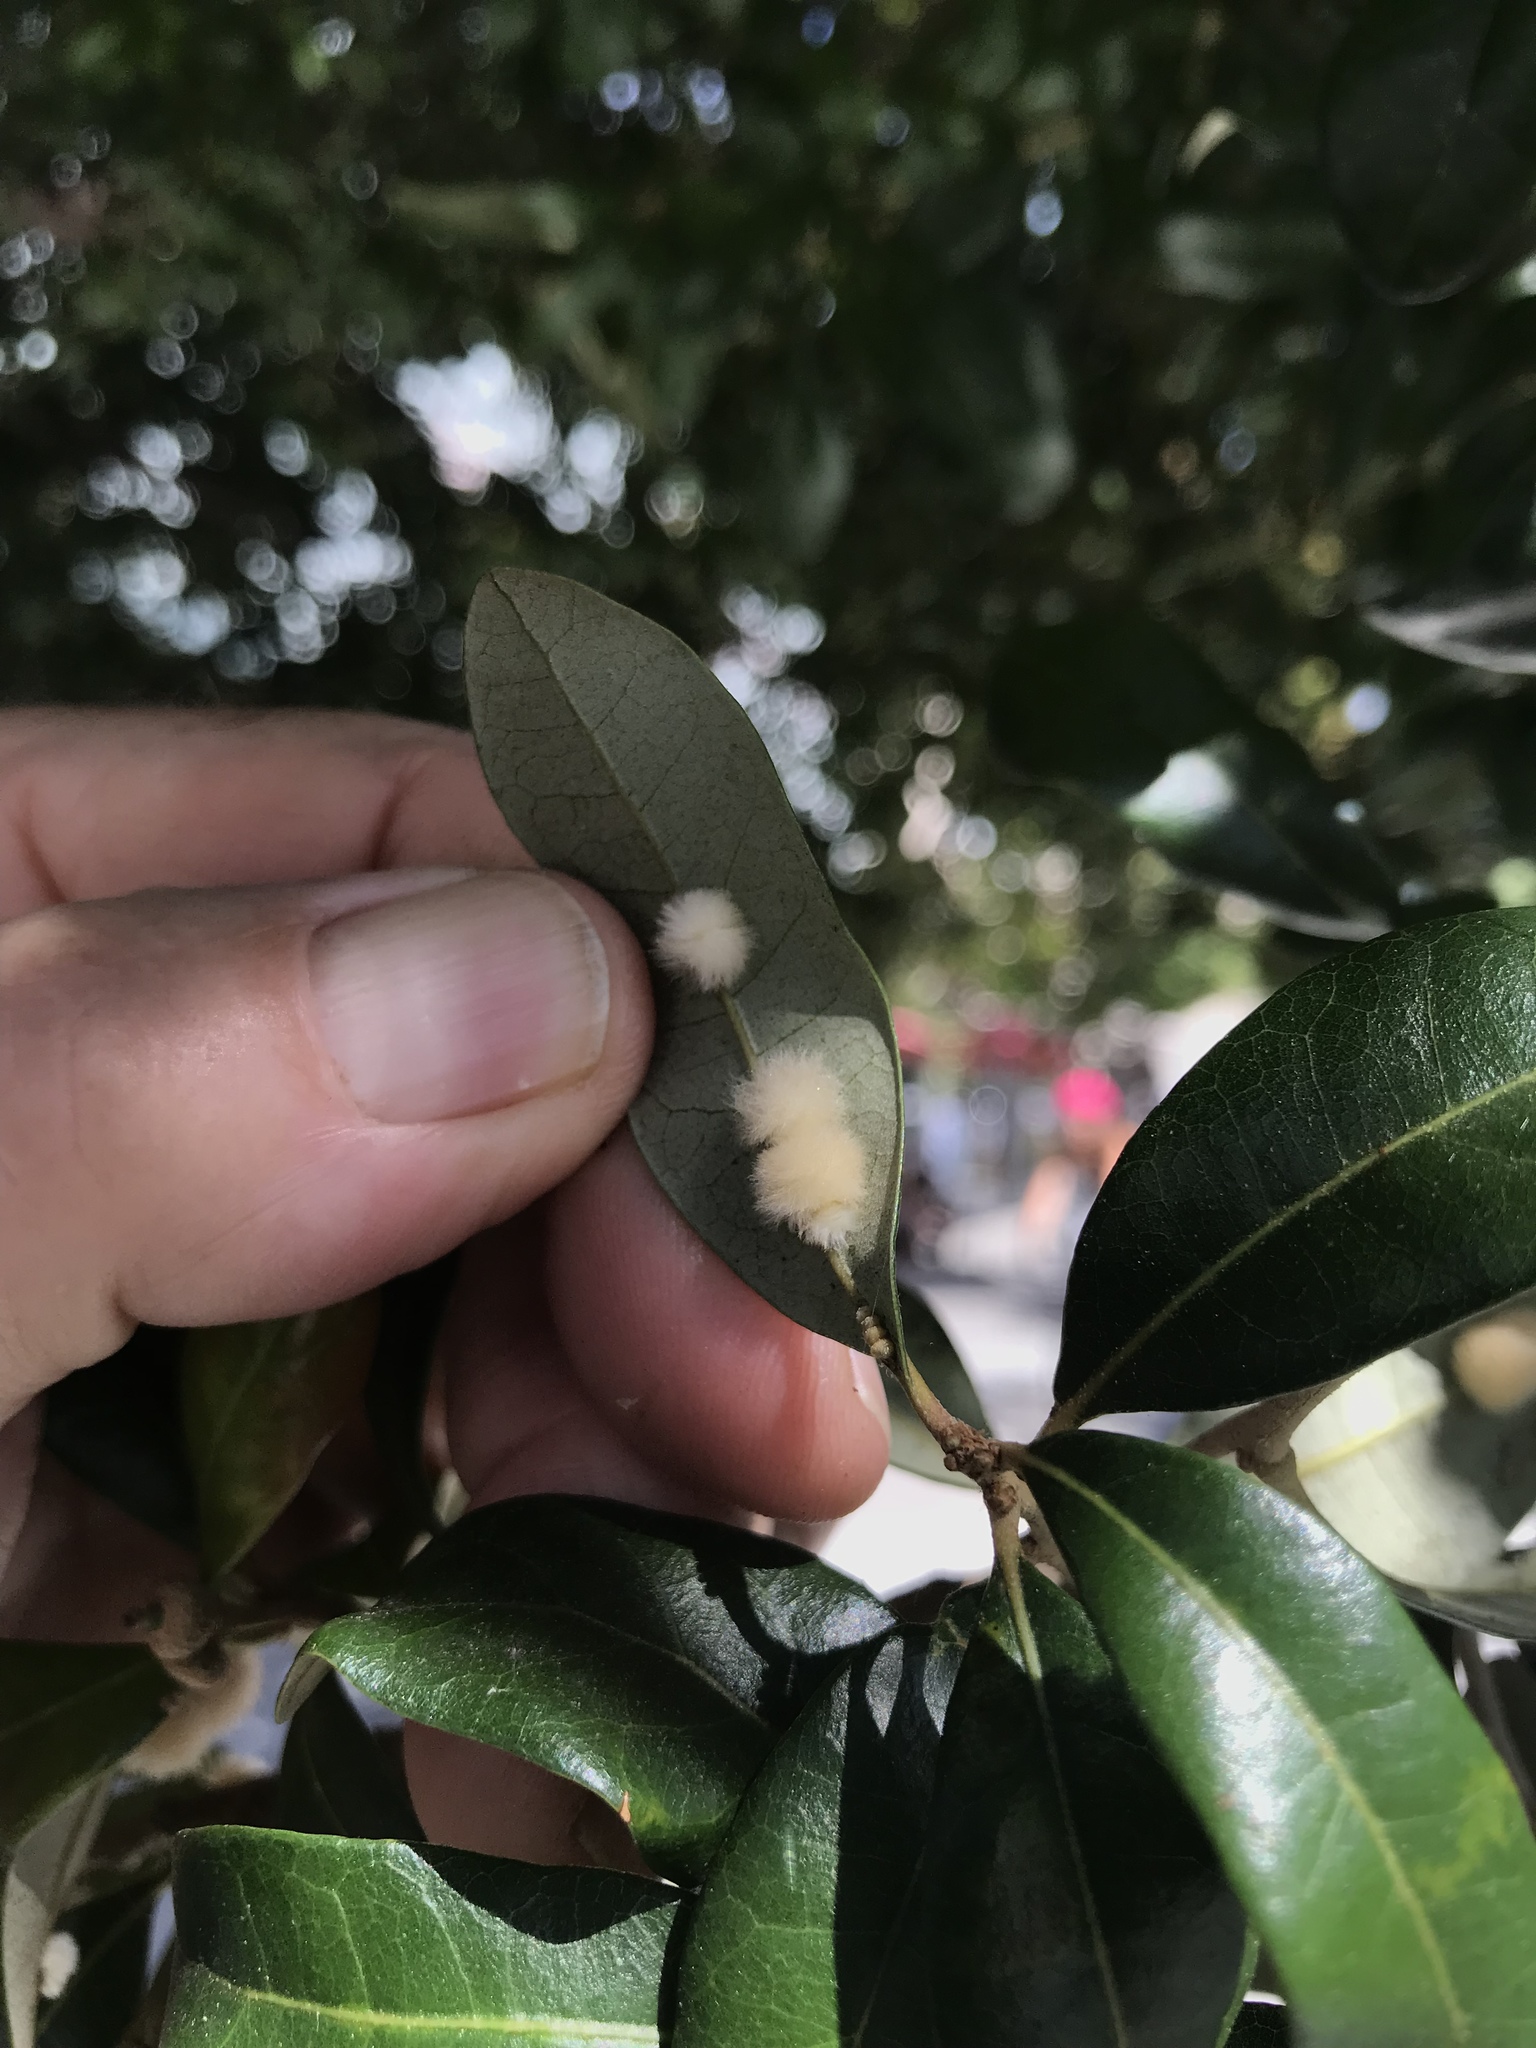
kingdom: Animalia
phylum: Arthropoda
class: Insecta
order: Hymenoptera
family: Cynipidae
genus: Andricus
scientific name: Andricus Druon quercuslanigerum
